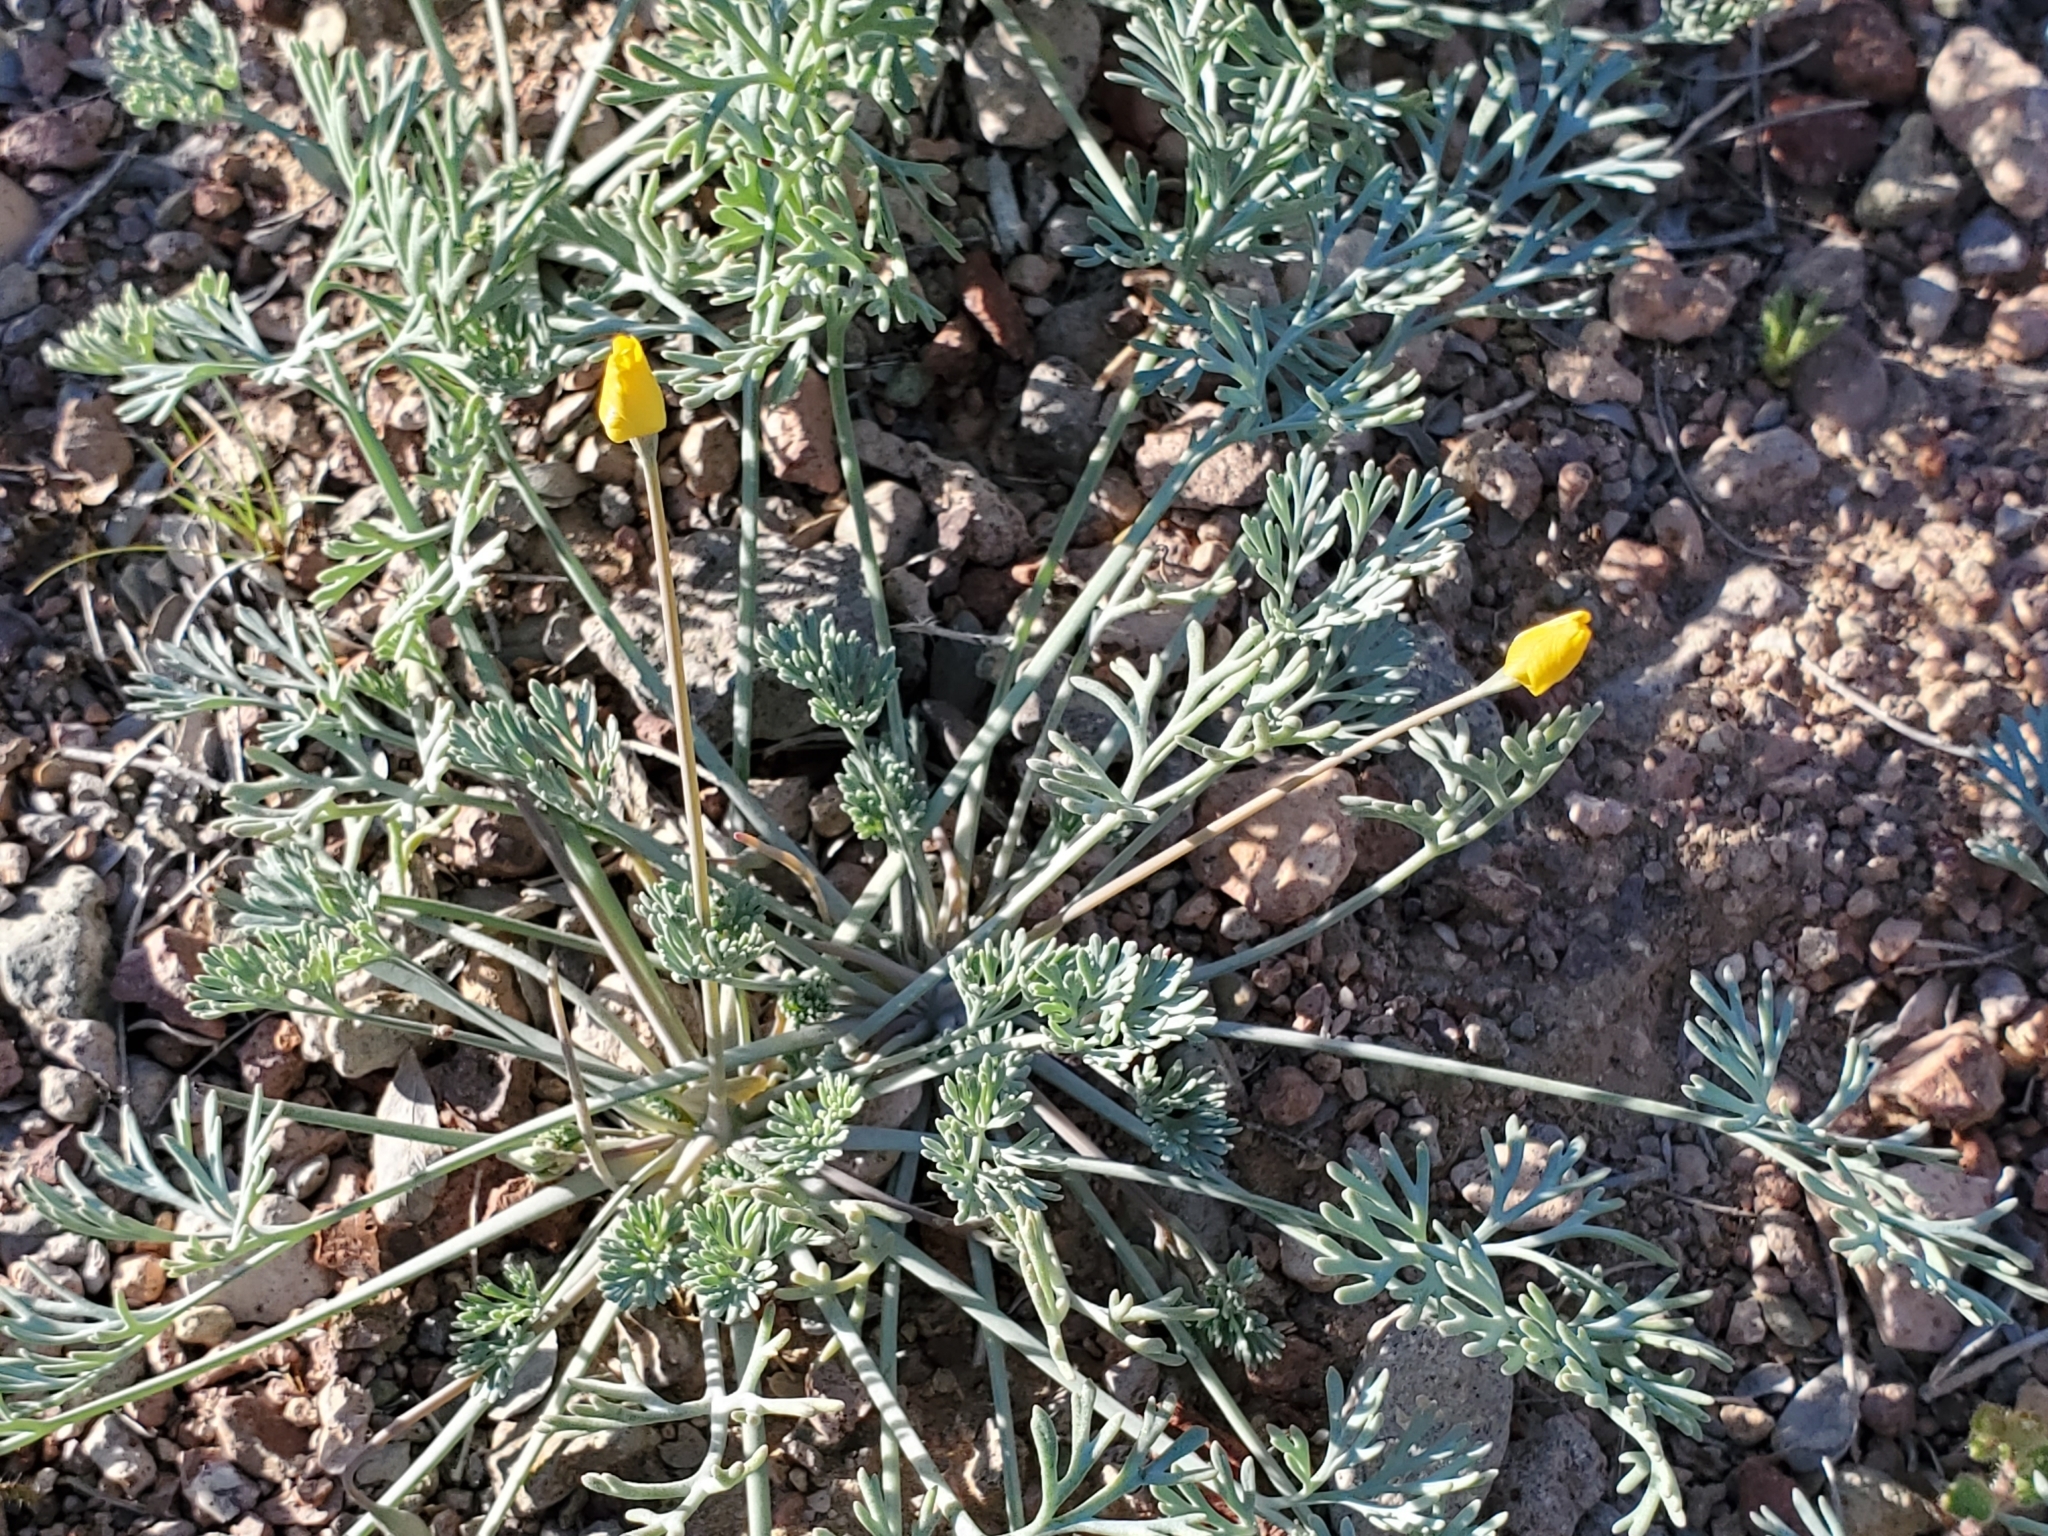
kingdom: Plantae
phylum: Tracheophyta
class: Magnoliopsida
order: Ranunculales
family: Papaveraceae
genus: Eschscholzia
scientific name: Eschscholzia minutiflora
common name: Small-flower california-poppy
